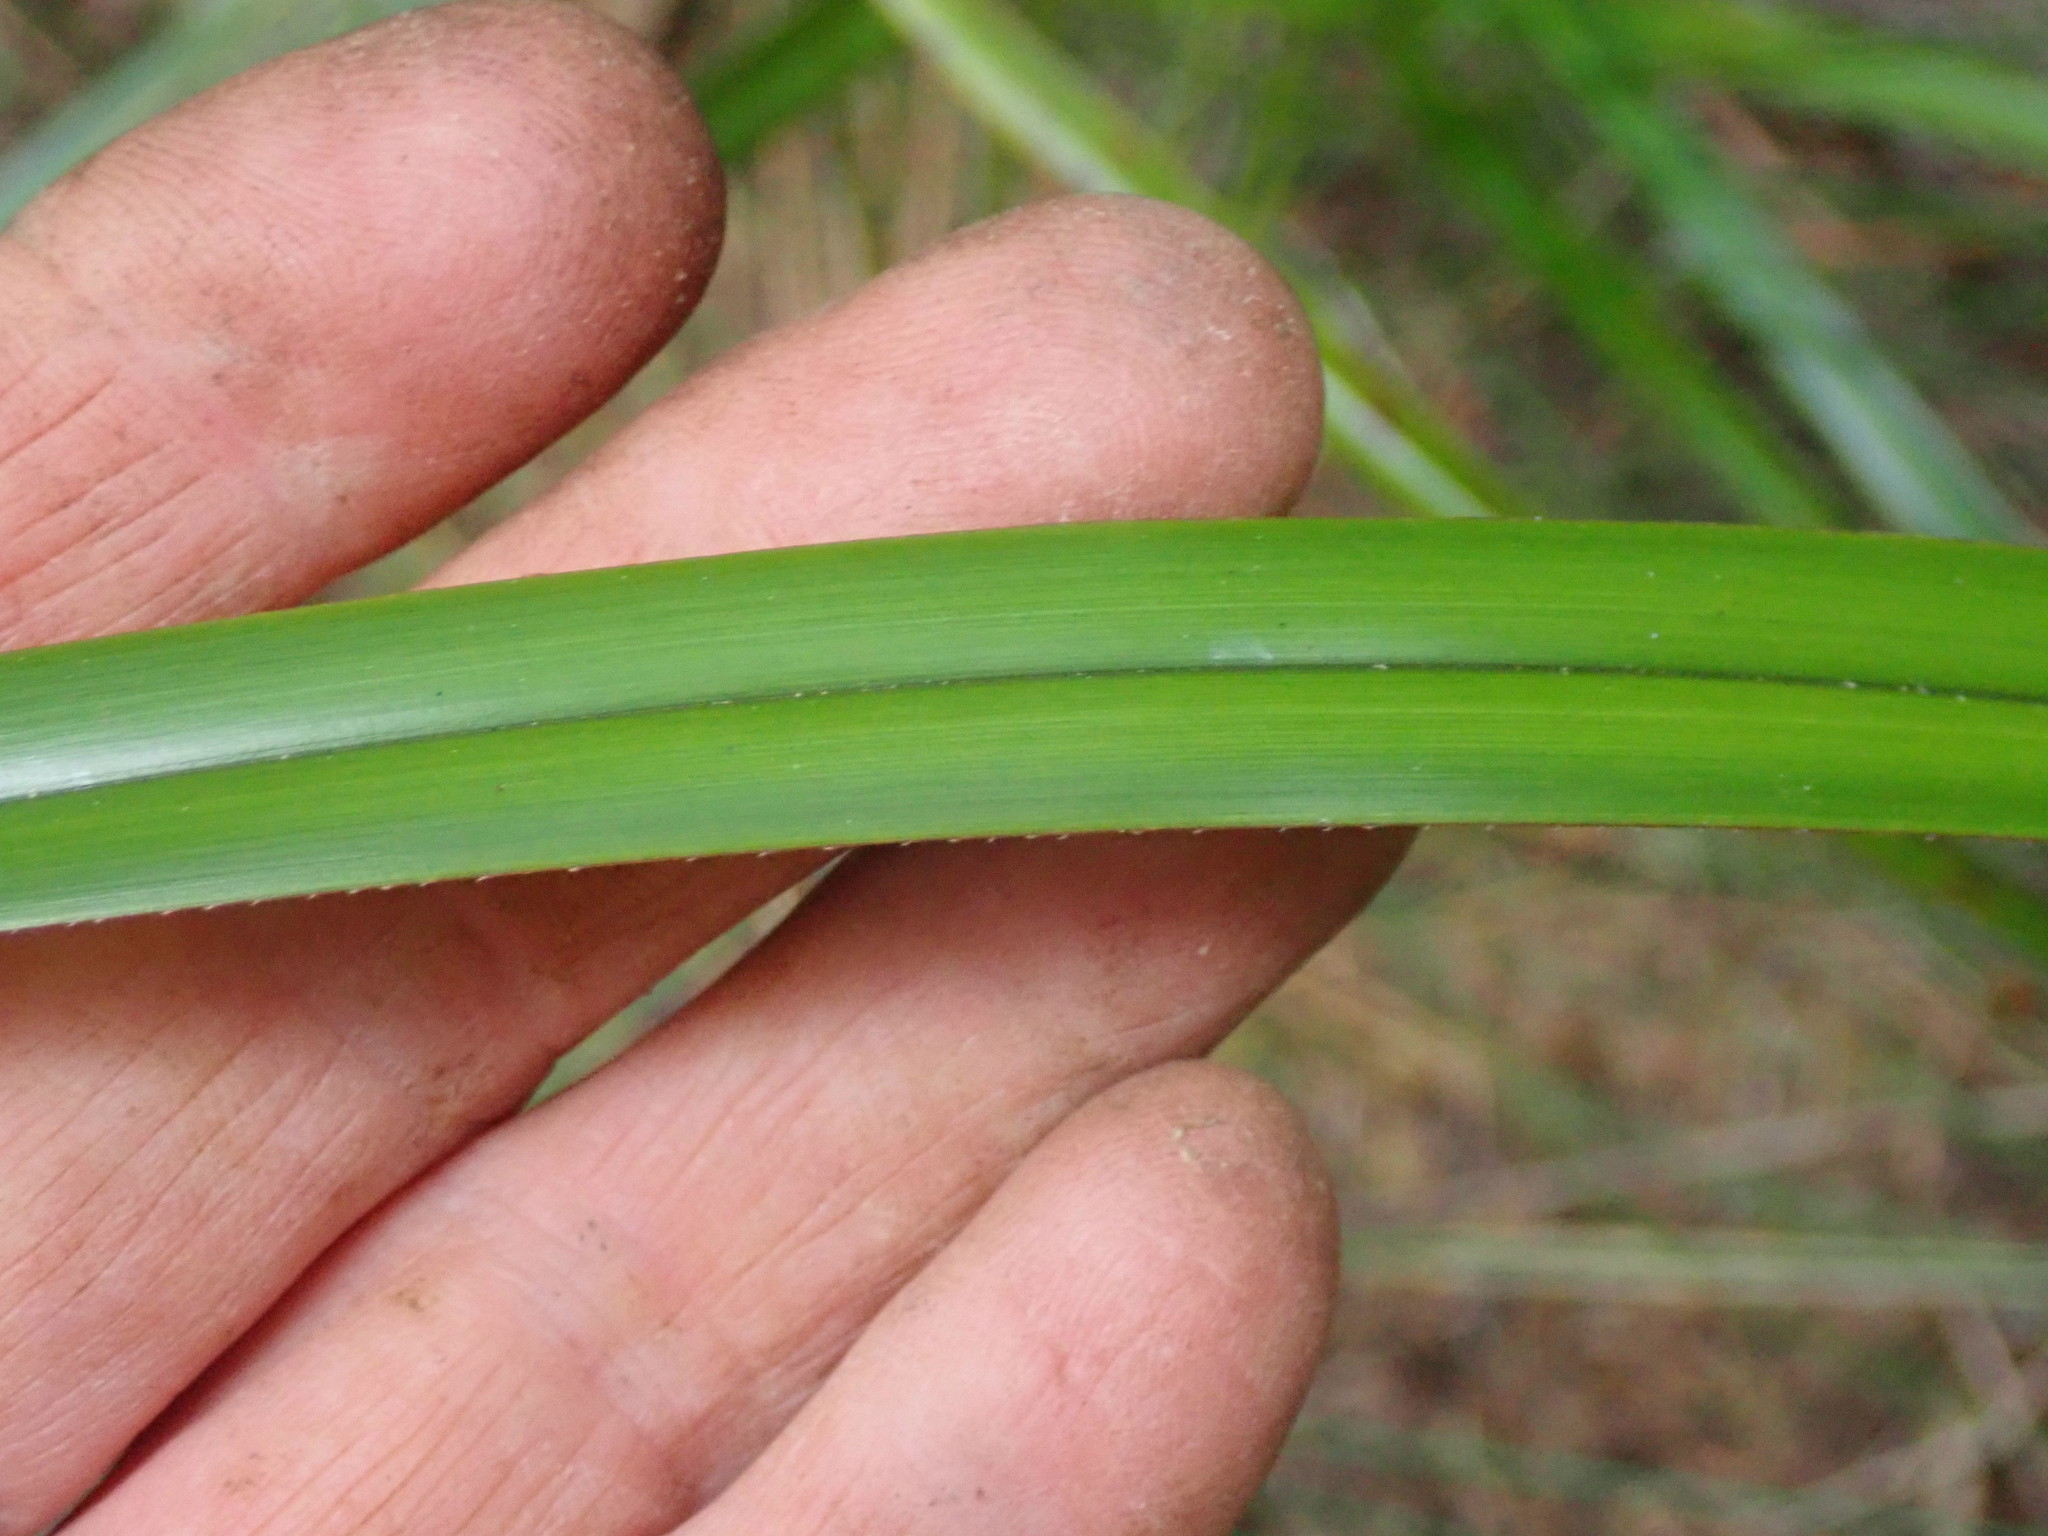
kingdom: Plantae
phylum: Tracheophyta
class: Liliopsida
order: Asparagales
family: Asphodelaceae
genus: Dianella
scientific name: Dianella nigra
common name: New zealand-blueberry
